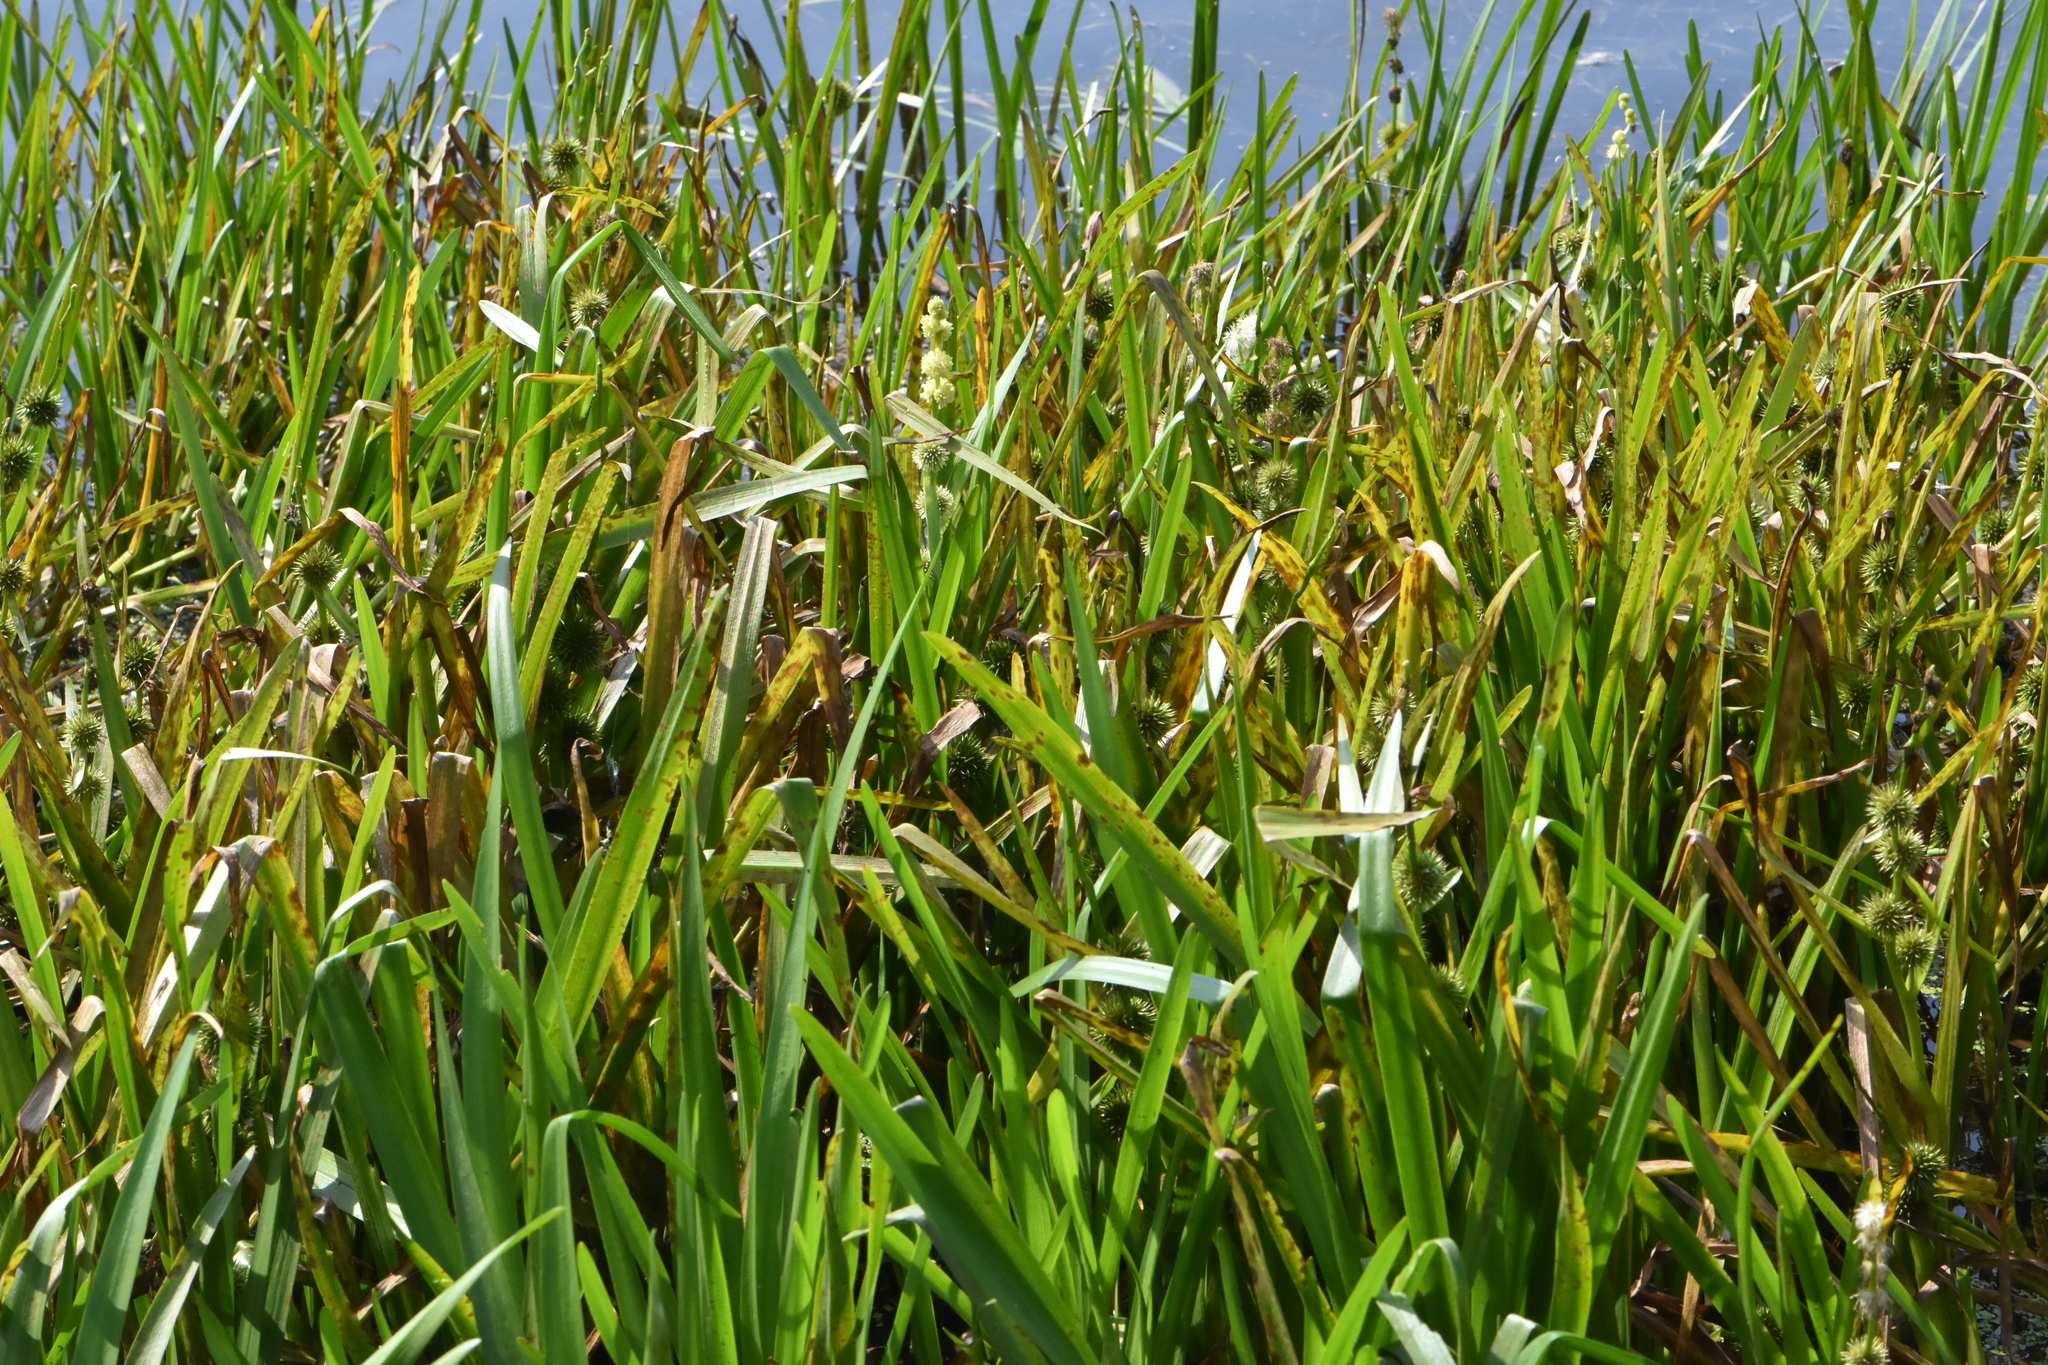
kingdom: Plantae
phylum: Tracheophyta
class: Liliopsida
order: Poales
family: Typhaceae
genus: Sparganium
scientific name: Sparganium emersum
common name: Unbranched bur-reed
